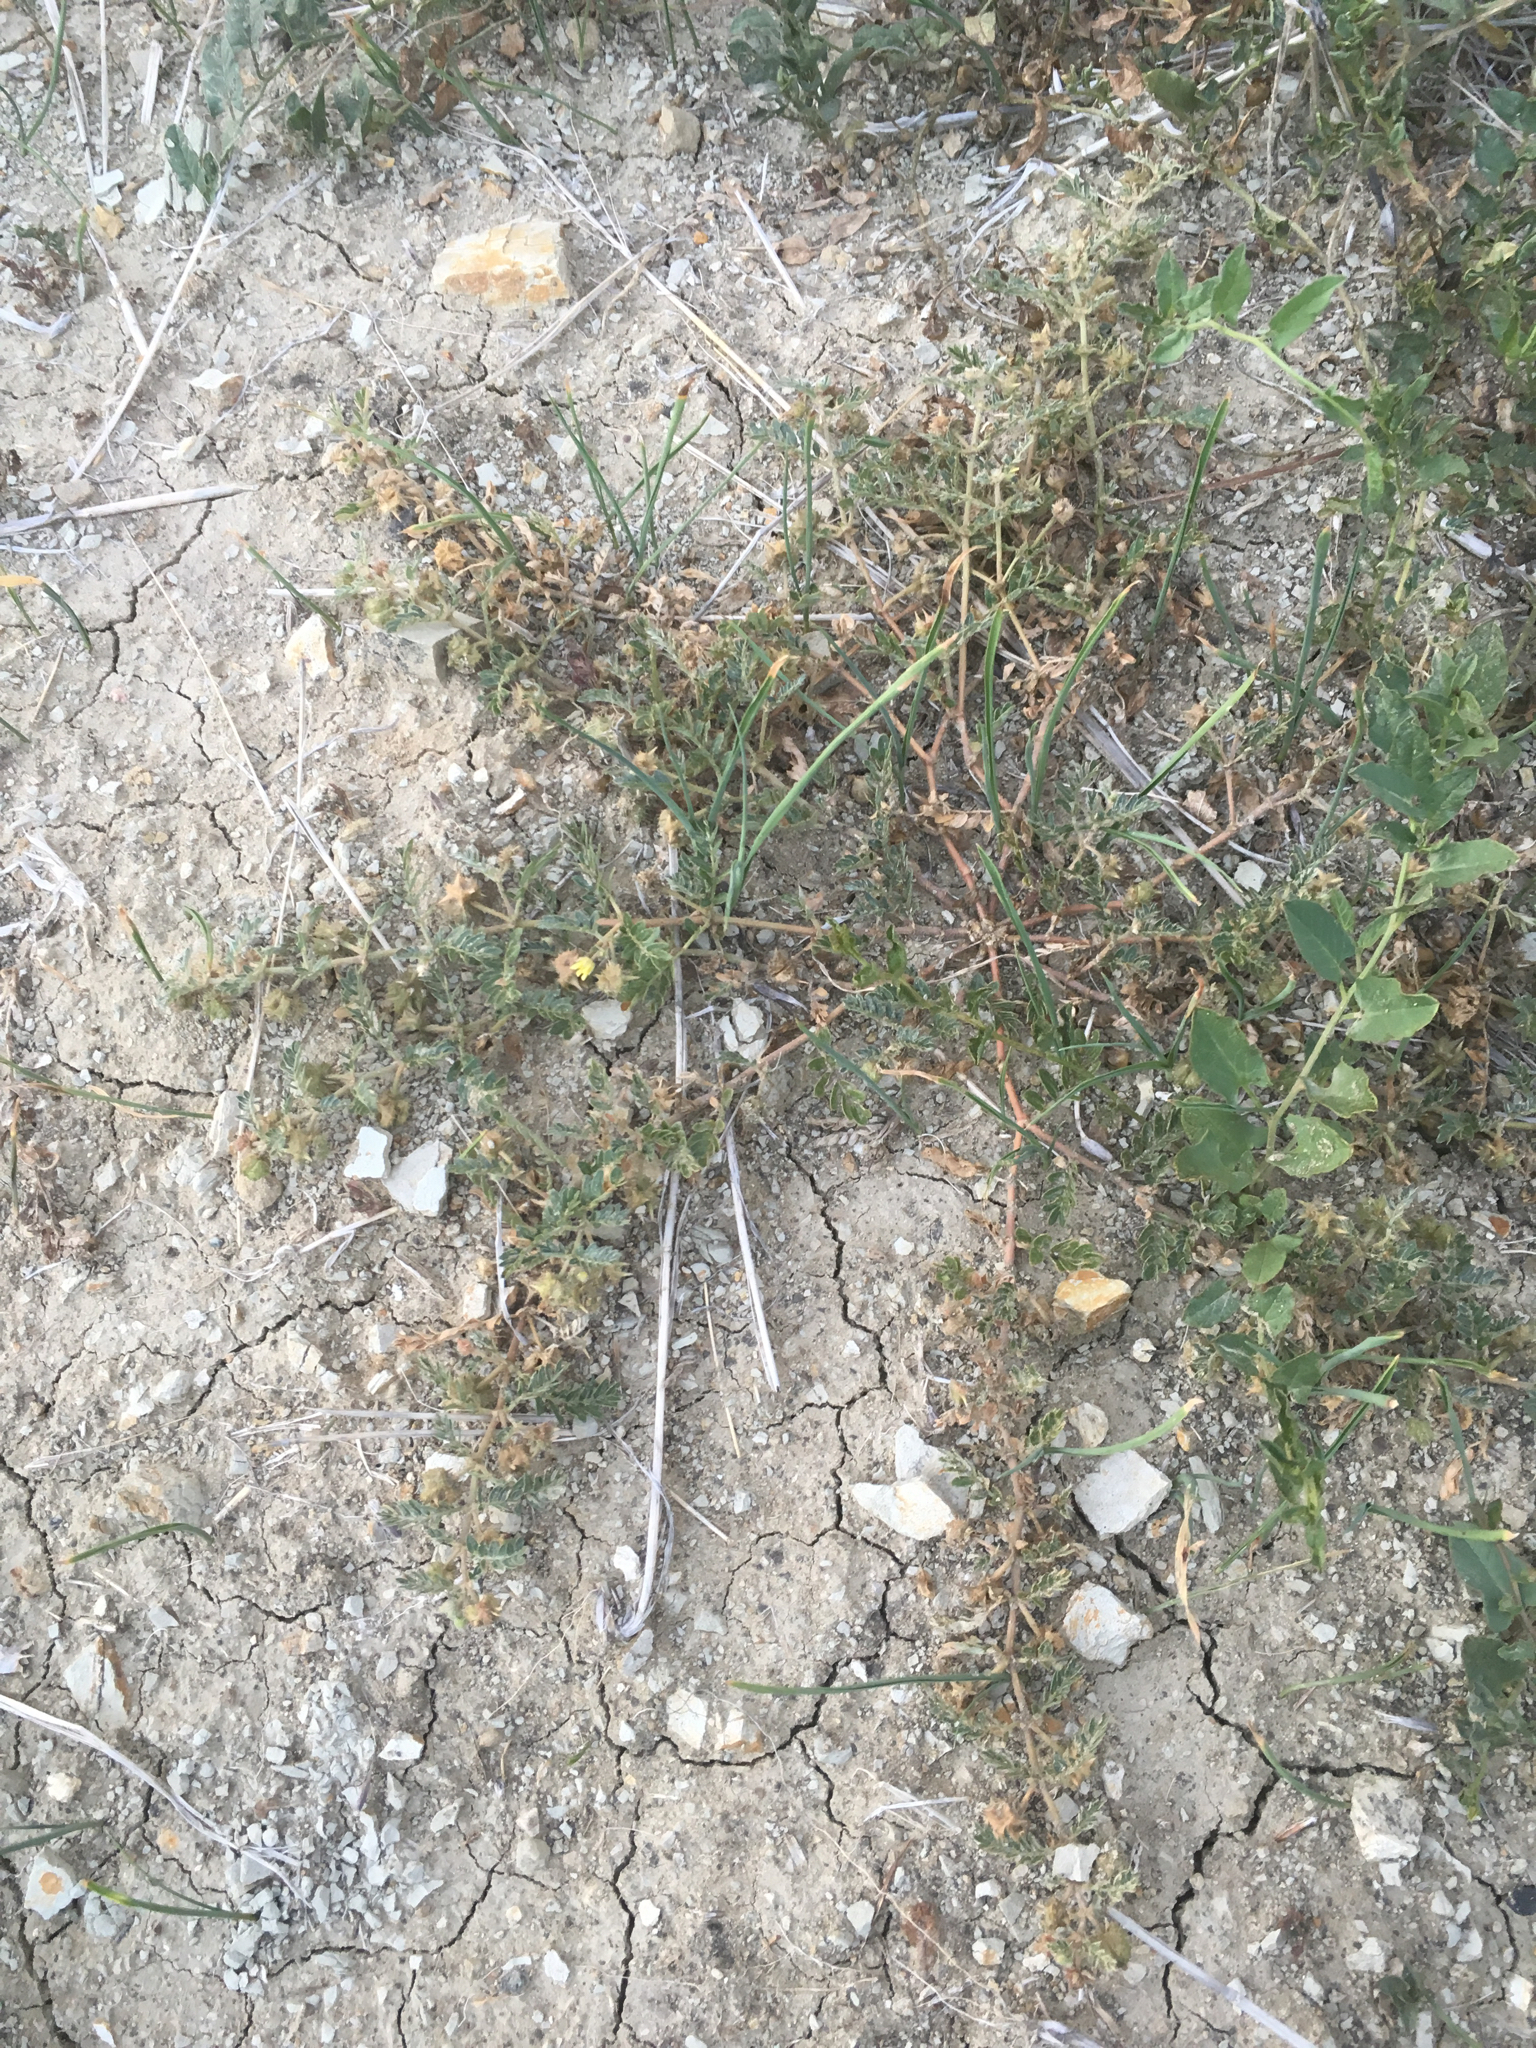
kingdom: Plantae
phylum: Tracheophyta
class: Magnoliopsida
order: Zygophyllales
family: Zygophyllaceae
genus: Tribulus
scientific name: Tribulus terrestris
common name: Puncturevine
